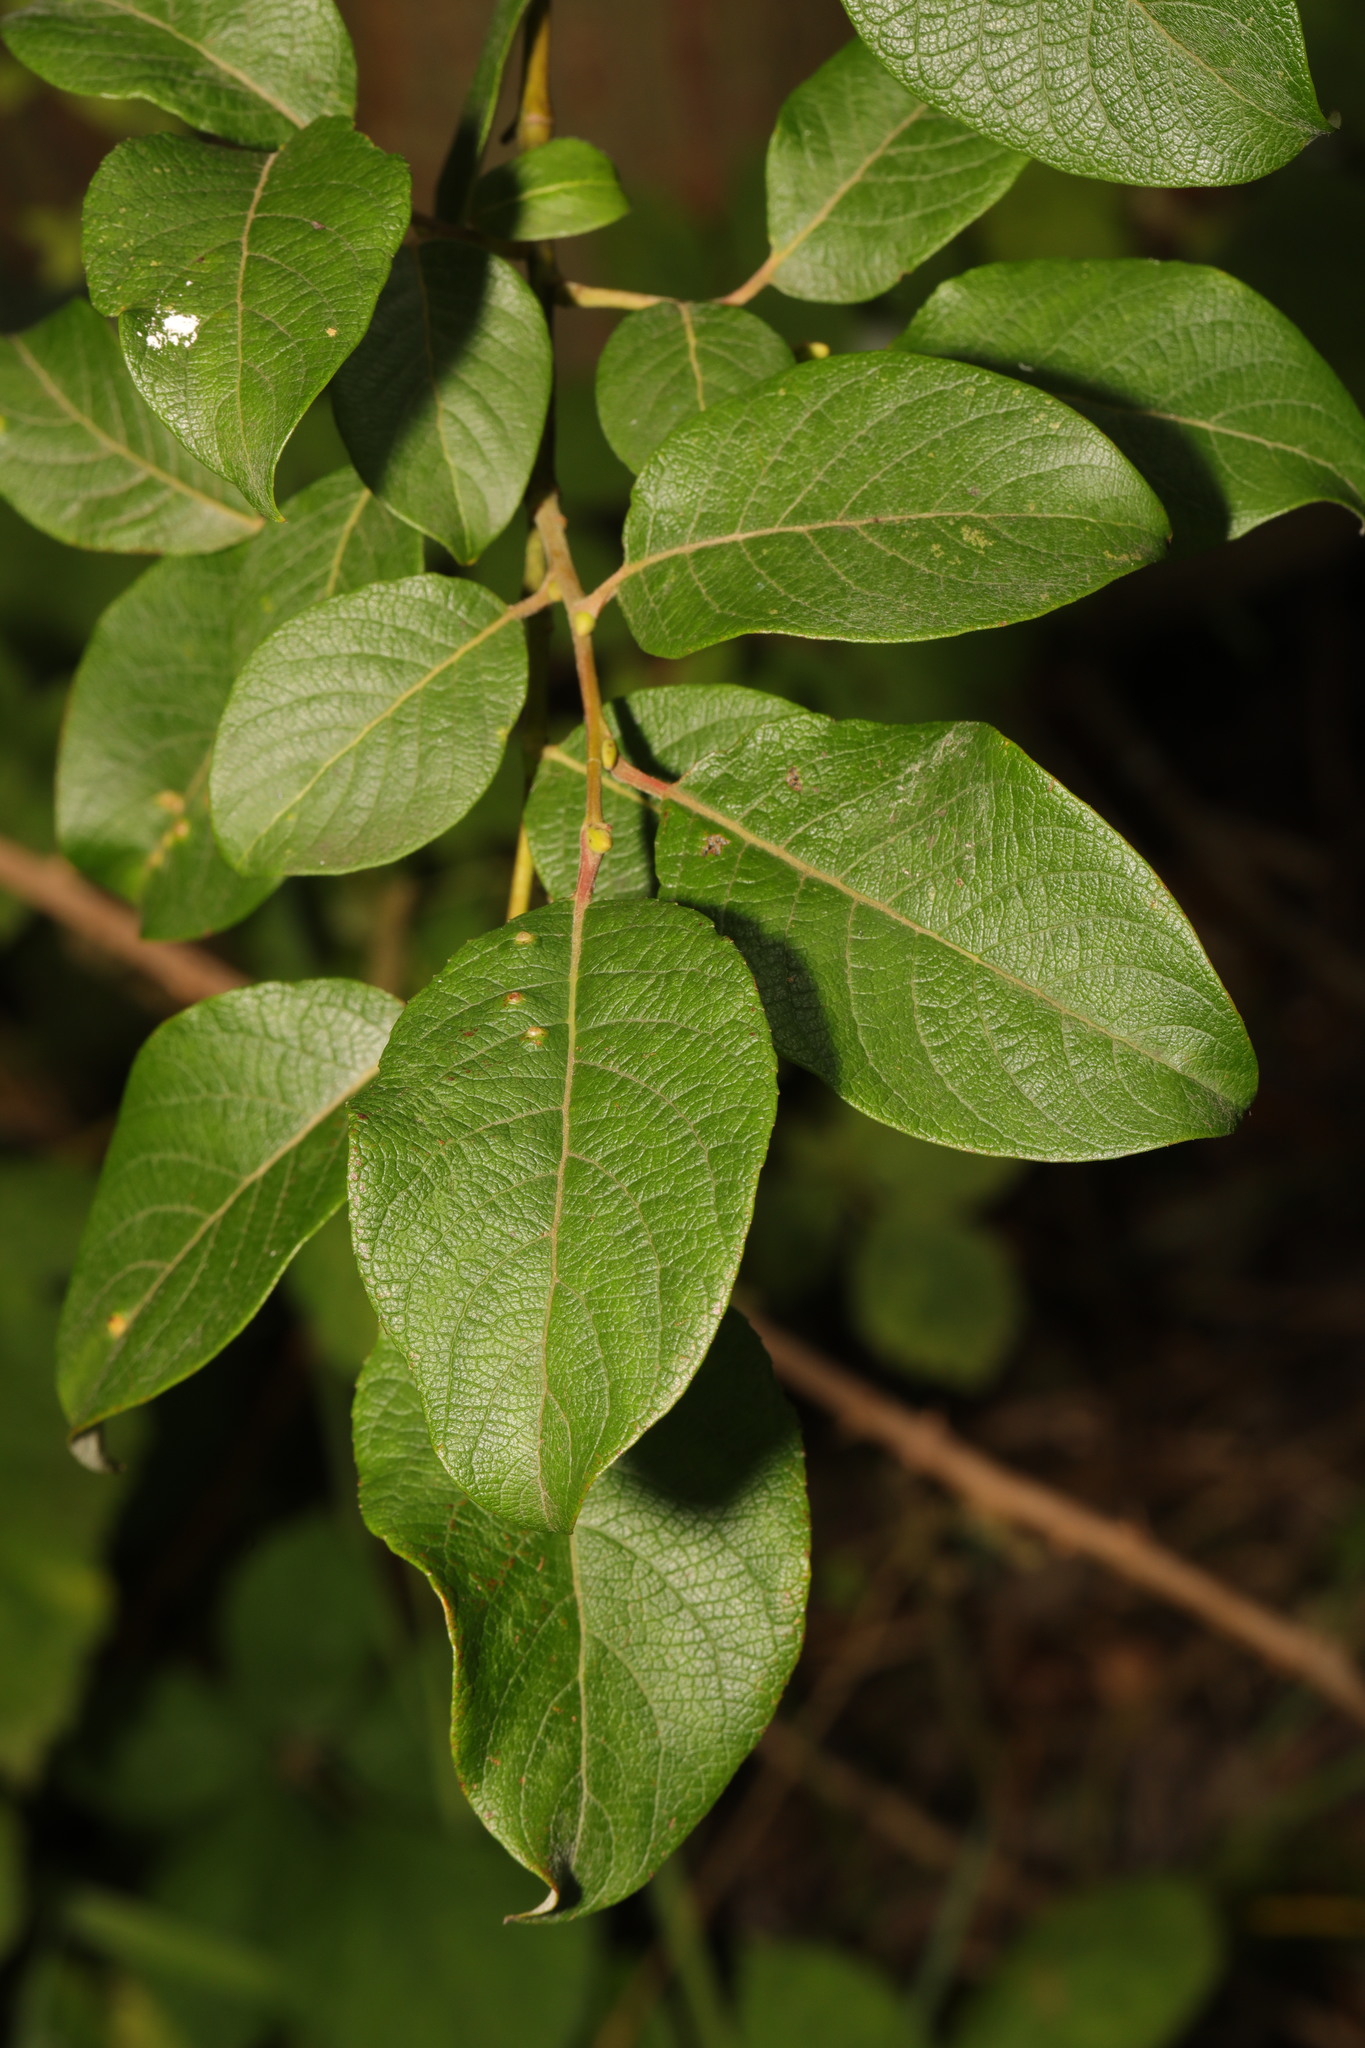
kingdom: Plantae
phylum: Tracheophyta
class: Magnoliopsida
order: Malpighiales
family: Salicaceae
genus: Salix
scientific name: Salix caprea
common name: Goat willow
